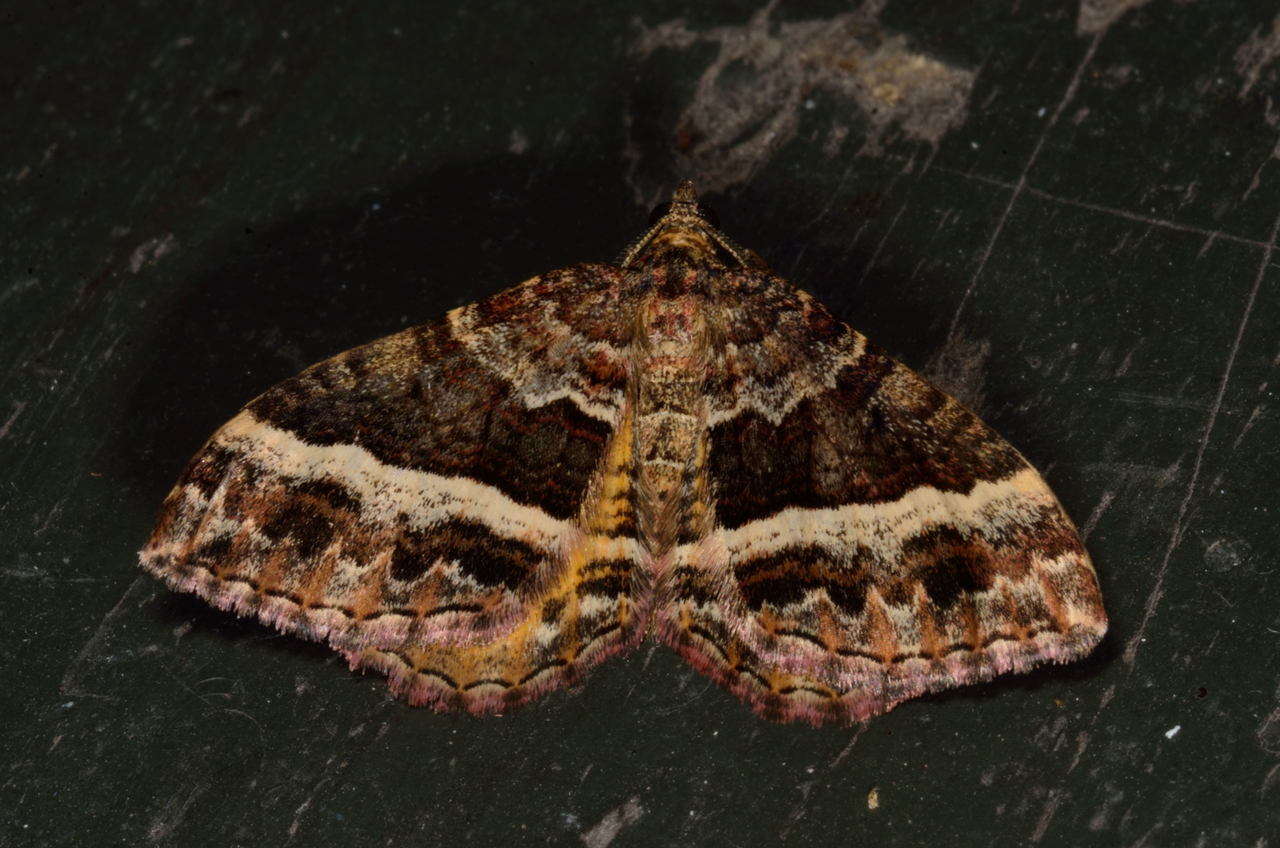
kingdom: Animalia
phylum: Arthropoda
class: Insecta
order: Lepidoptera
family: Geometridae
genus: Chrysolarentia
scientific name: Chrysolarentia vicissata
